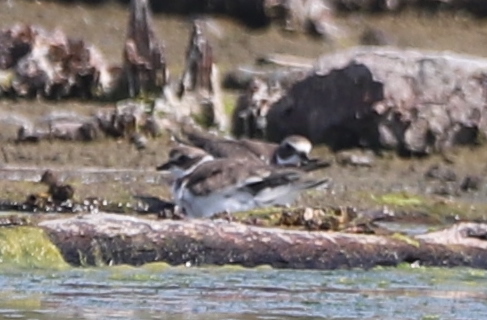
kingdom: Animalia
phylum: Chordata
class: Aves
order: Charadriiformes
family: Charadriidae
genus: Charadrius
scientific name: Charadrius semipalmatus
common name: Semipalmated plover
